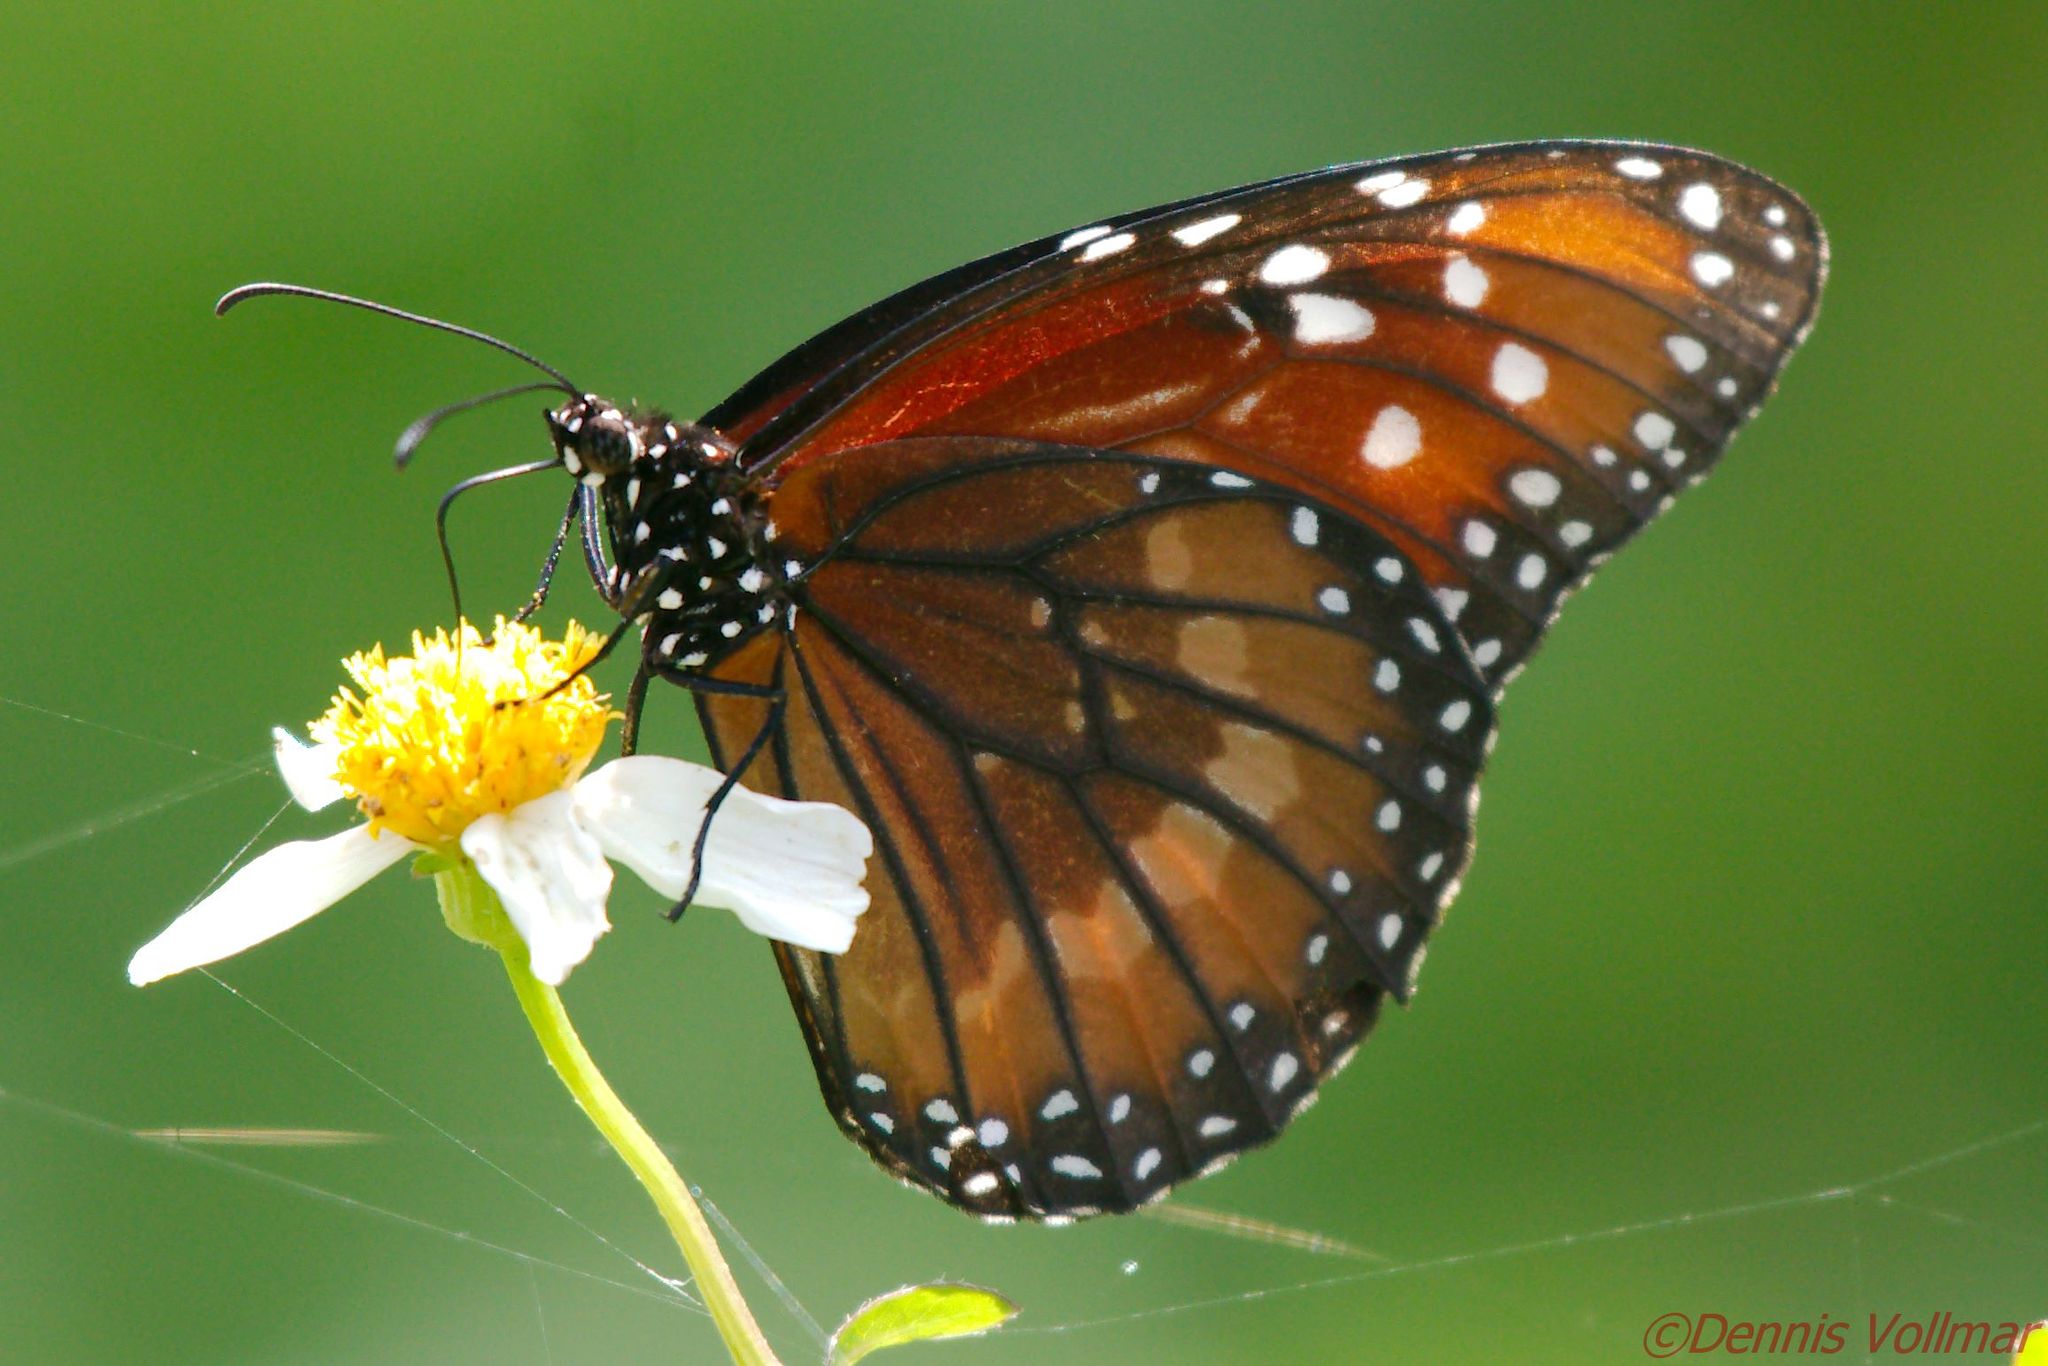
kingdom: Animalia
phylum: Arthropoda
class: Insecta
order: Lepidoptera
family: Nymphalidae
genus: Danaus
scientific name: Danaus eresimus
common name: Soldier
